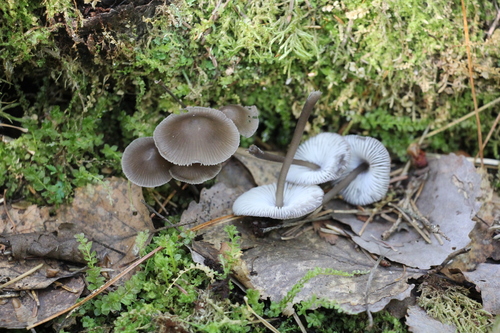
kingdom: Fungi
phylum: Basidiomycota
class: Agaricomycetes
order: Agaricales
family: Mycenaceae
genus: Mycena
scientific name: Mycena algeriensis
